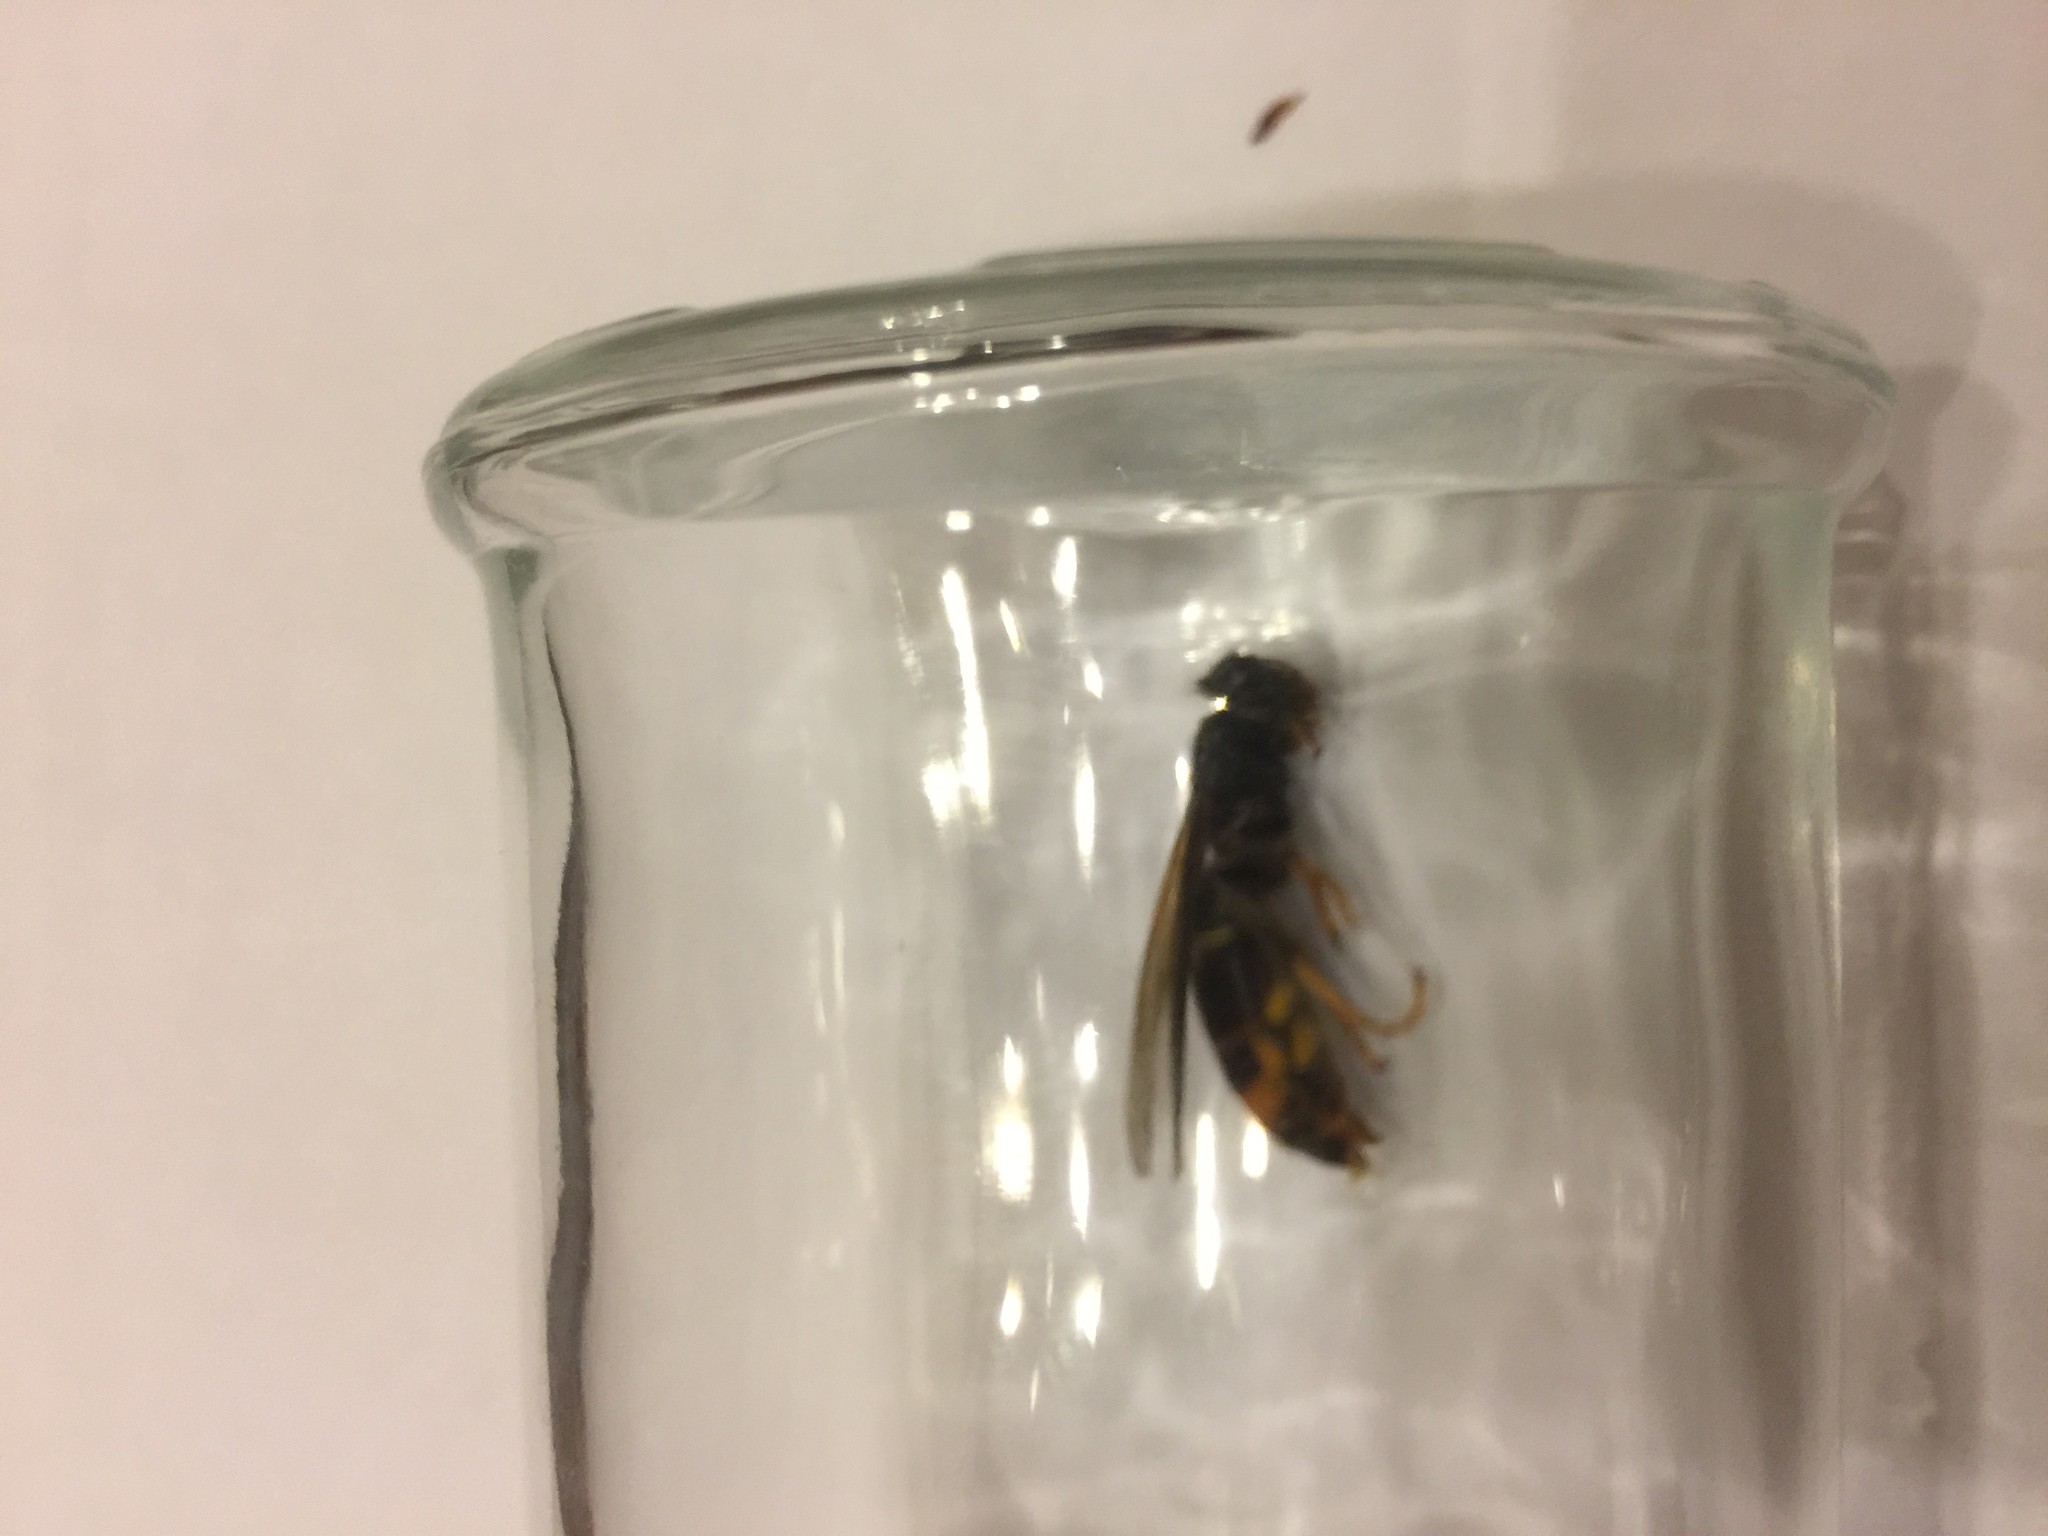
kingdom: Animalia
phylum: Arthropoda
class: Insecta
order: Hymenoptera
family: Vespidae
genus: Vespa
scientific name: Vespa velutina
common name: Asian hornet
